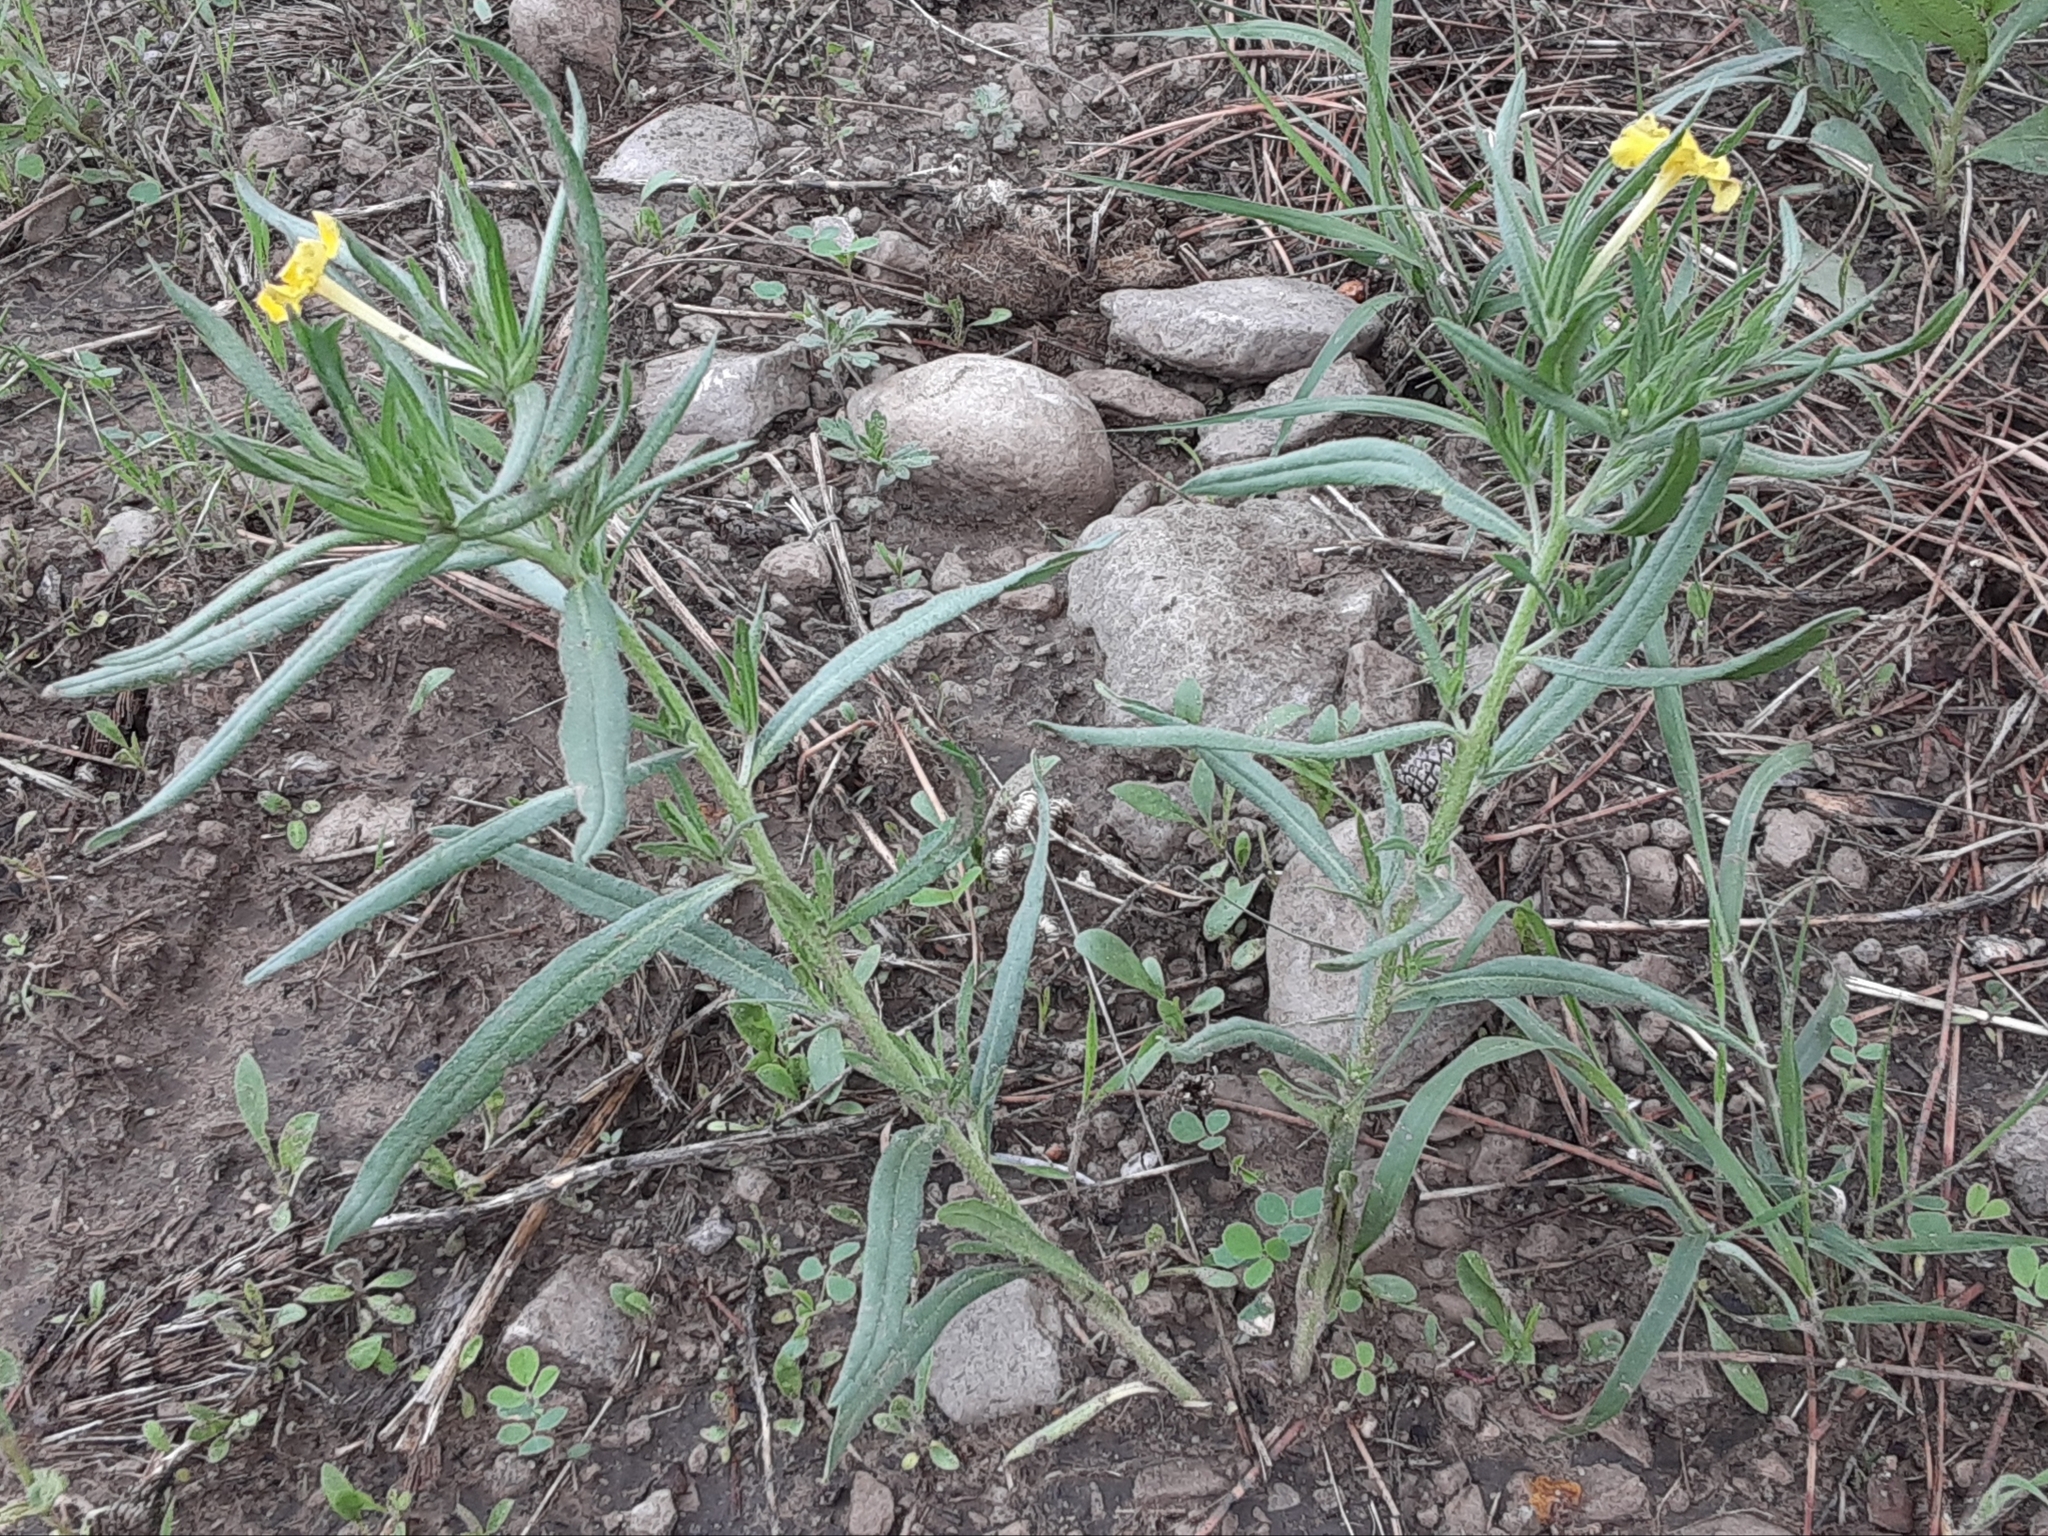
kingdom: Plantae
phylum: Tracheophyta
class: Magnoliopsida
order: Boraginales
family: Boraginaceae
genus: Lithospermum
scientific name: Lithospermum incisum
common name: Fringed gromwell
